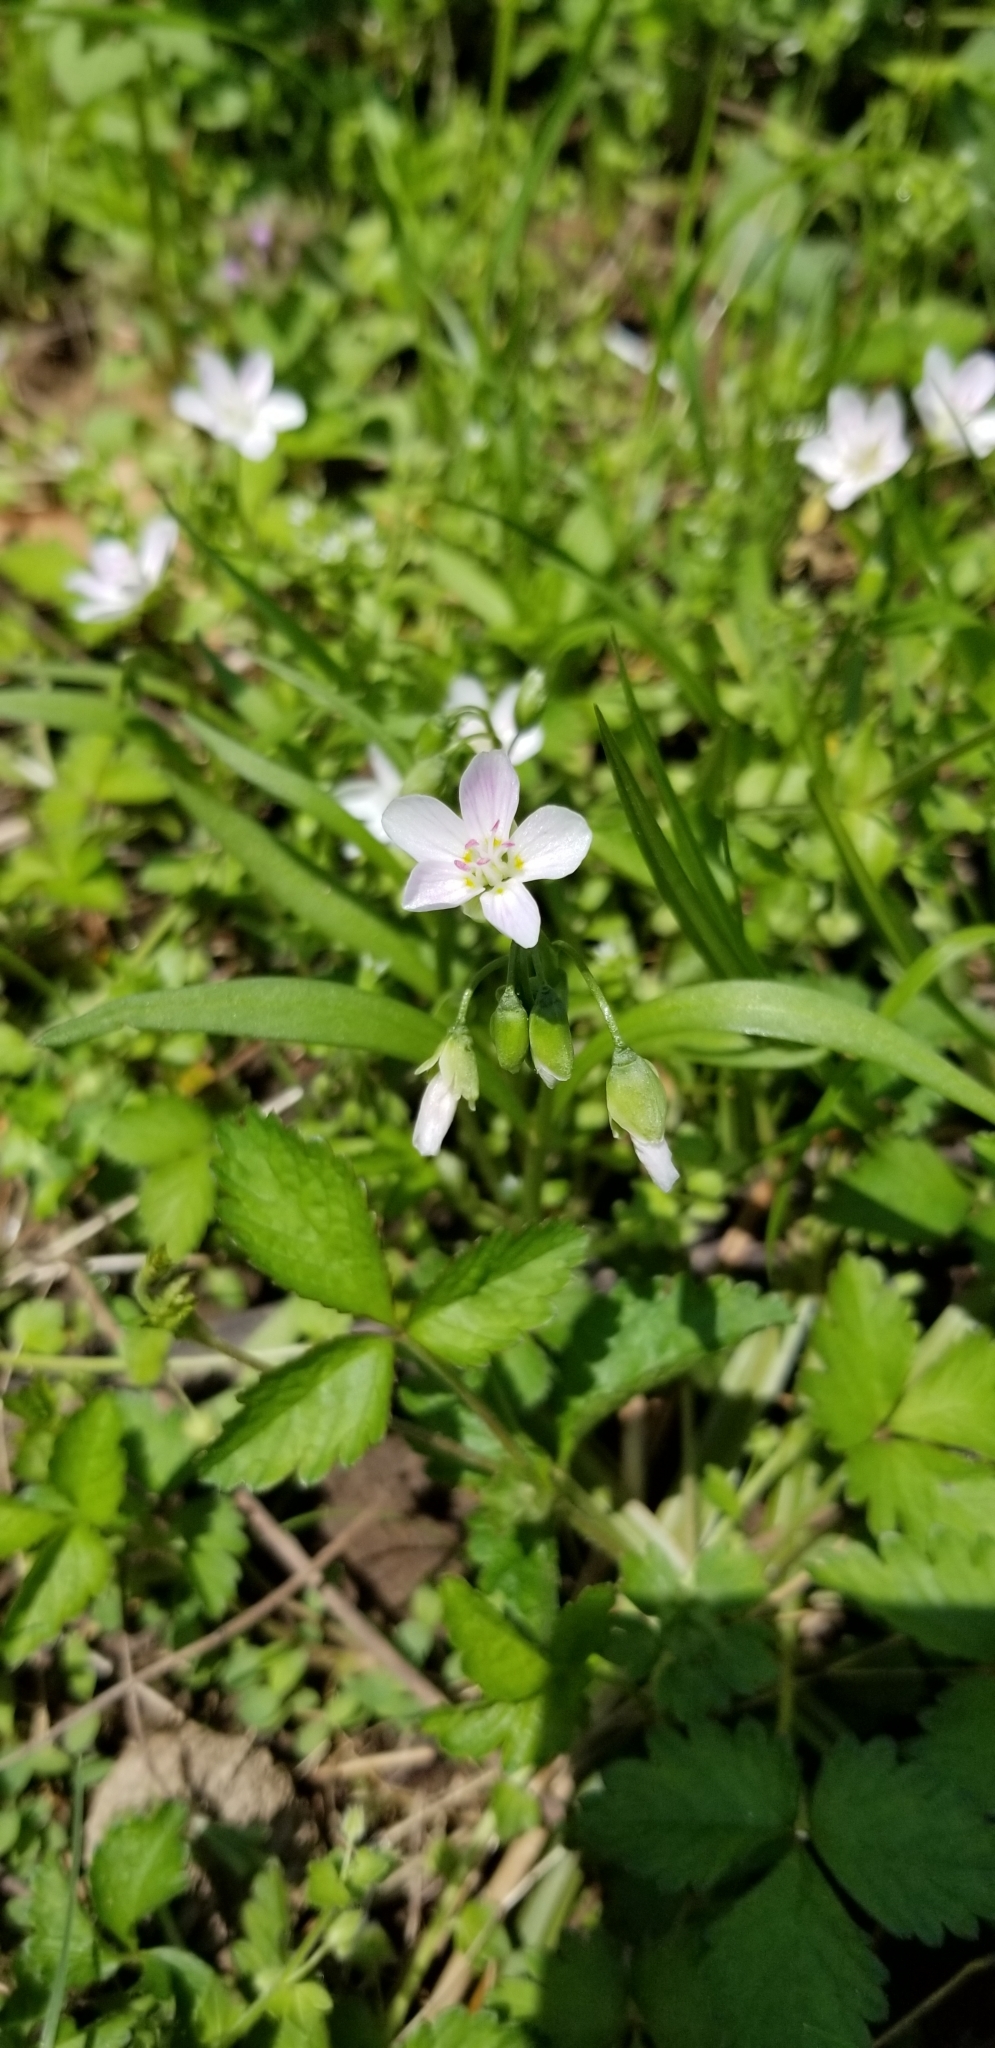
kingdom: Plantae
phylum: Tracheophyta
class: Magnoliopsida
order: Caryophyllales
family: Montiaceae
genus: Claytonia
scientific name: Claytonia virginica
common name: Virginia springbeauty
